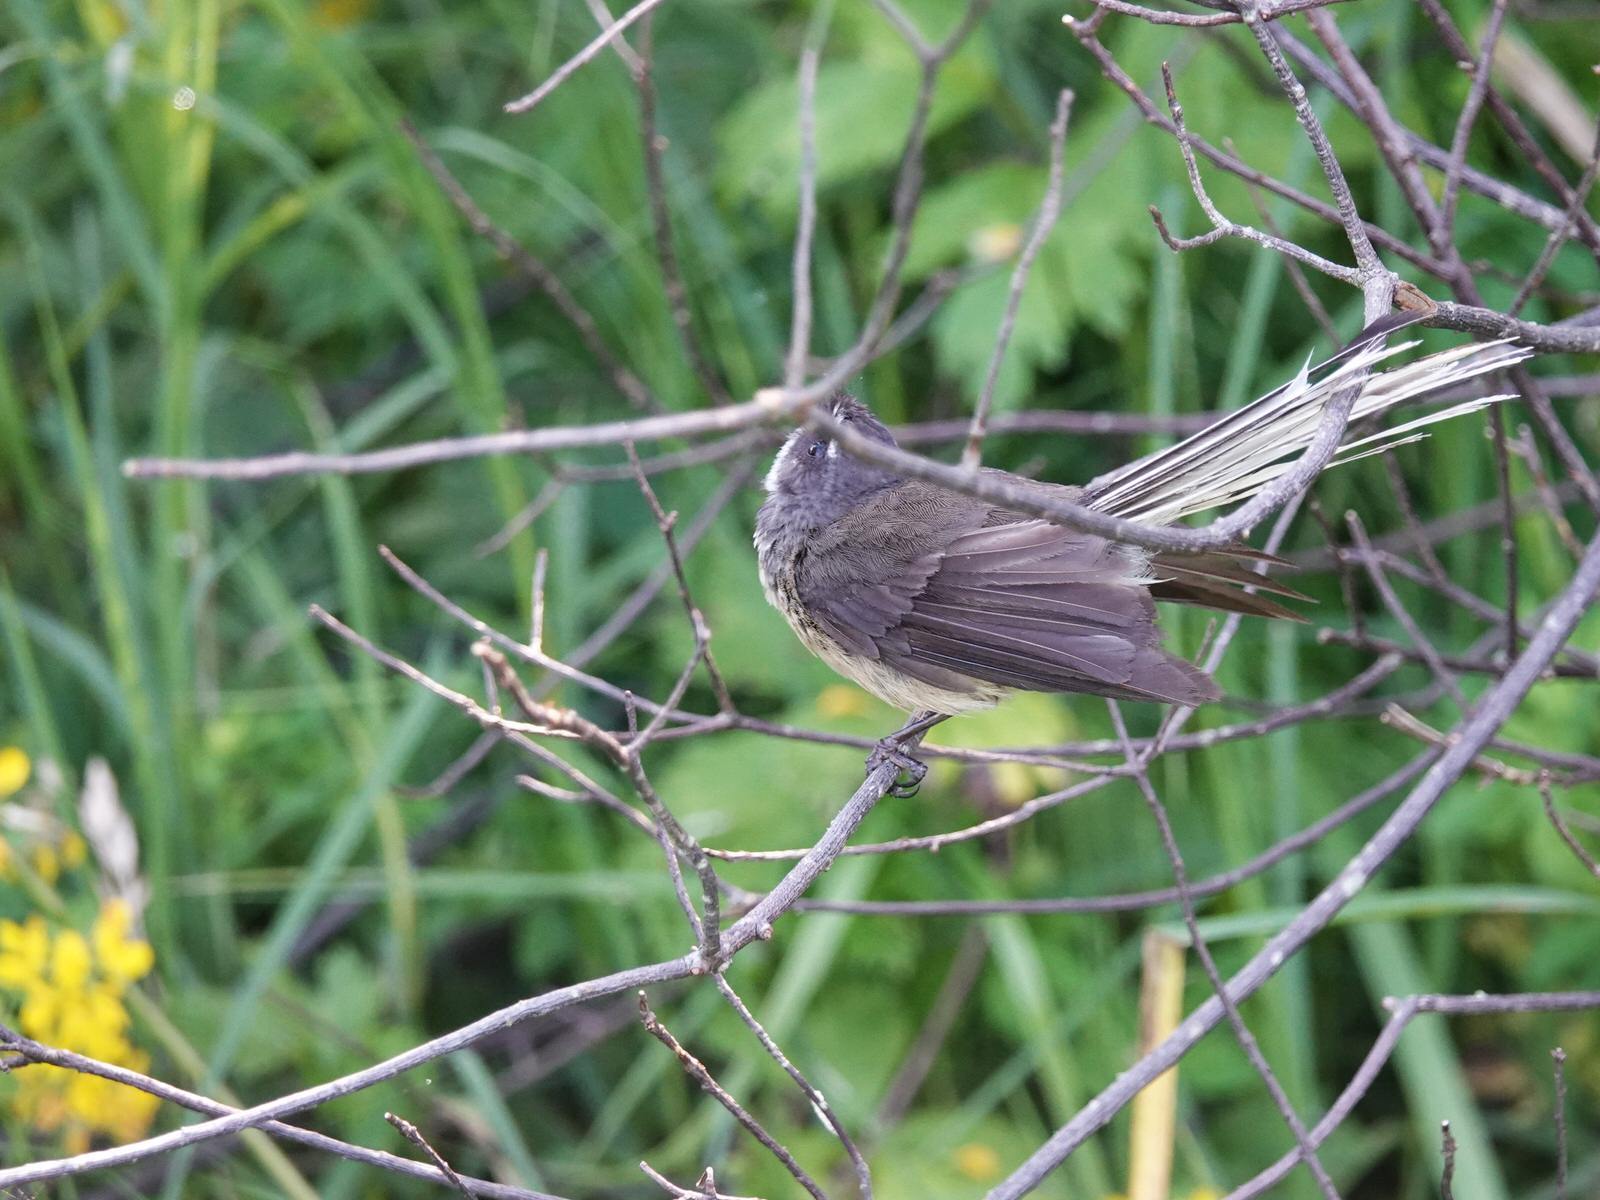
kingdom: Animalia
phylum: Chordata
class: Aves
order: Passeriformes
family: Rhipiduridae
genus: Rhipidura
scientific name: Rhipidura fuliginosa
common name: New zealand fantail
